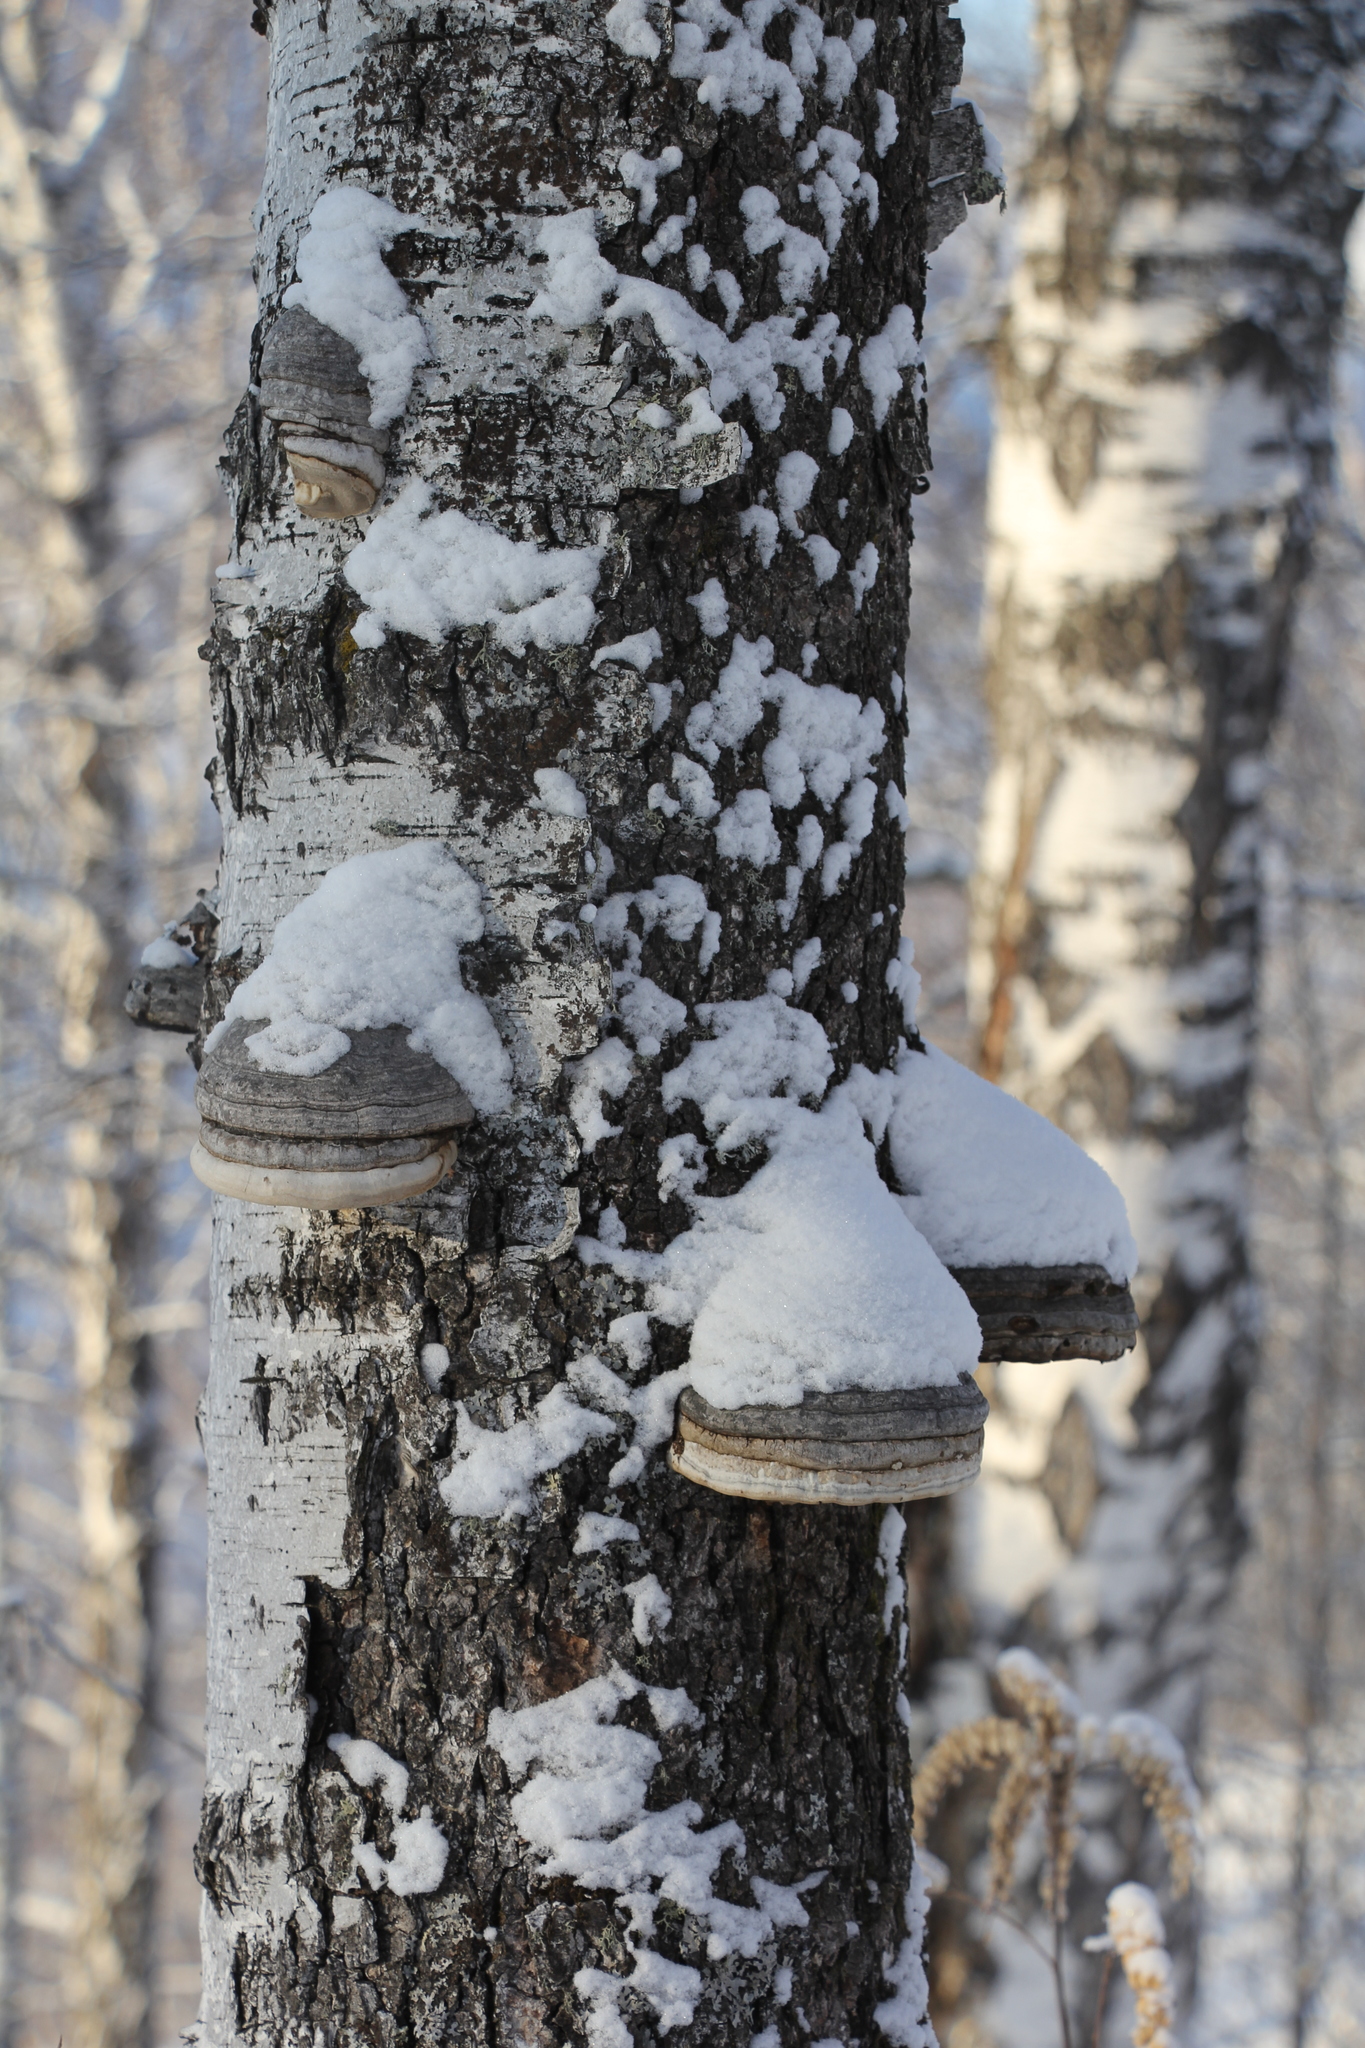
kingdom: Fungi
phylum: Basidiomycota
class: Agaricomycetes
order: Polyporales
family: Polyporaceae
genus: Fomes
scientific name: Fomes fomentarius
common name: Hoof fungus
